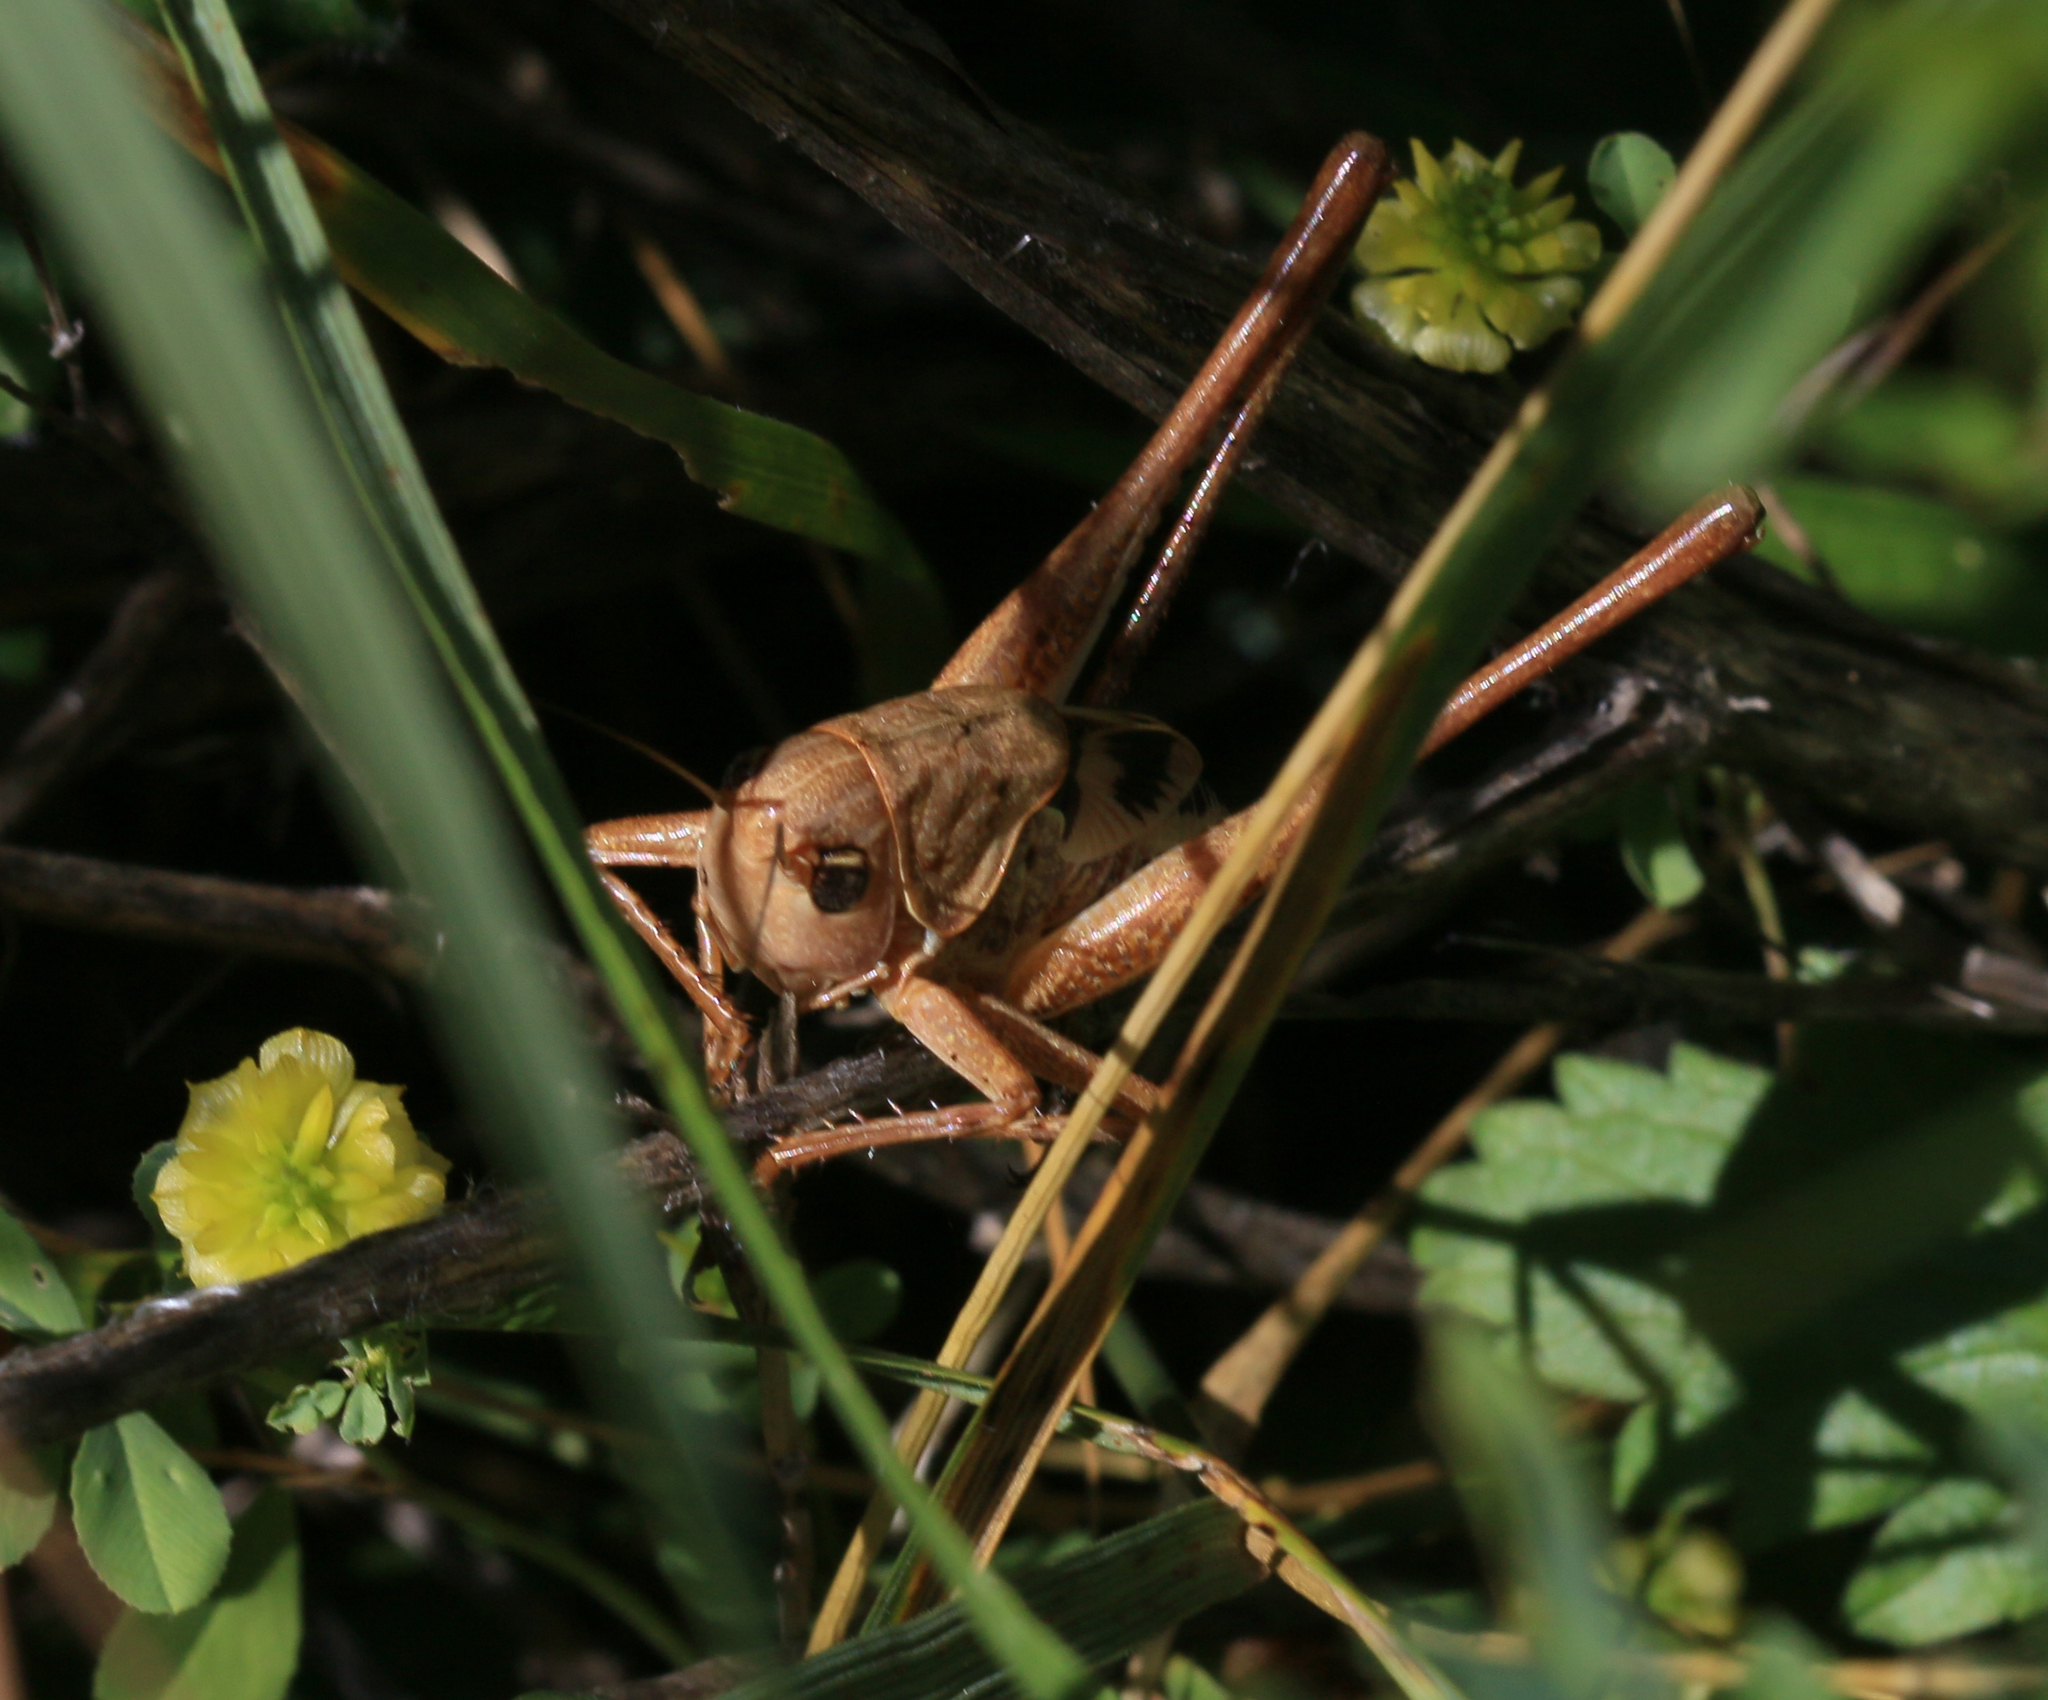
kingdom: Animalia
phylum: Arthropoda
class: Insecta
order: Orthoptera
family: Tettigoniidae
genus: Decticus
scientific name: Decticus albifrons
